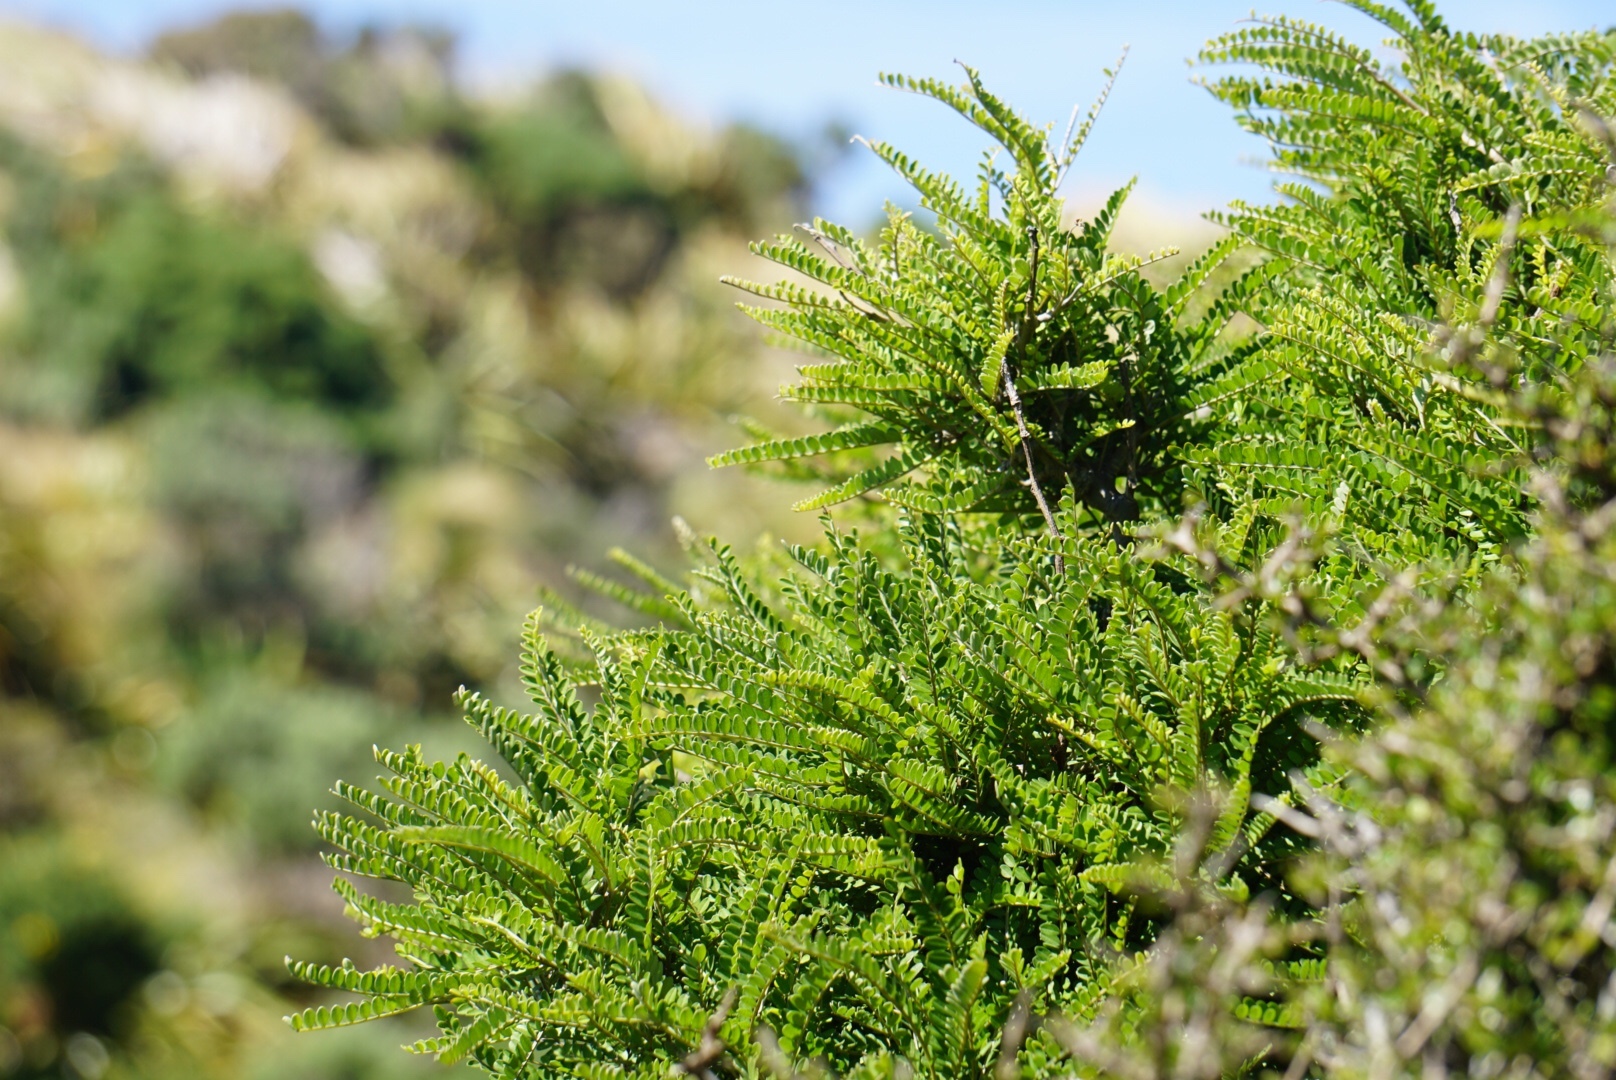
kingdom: Plantae
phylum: Tracheophyta
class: Magnoliopsida
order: Fabales
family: Fabaceae
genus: Sophora
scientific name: Sophora molloyi
